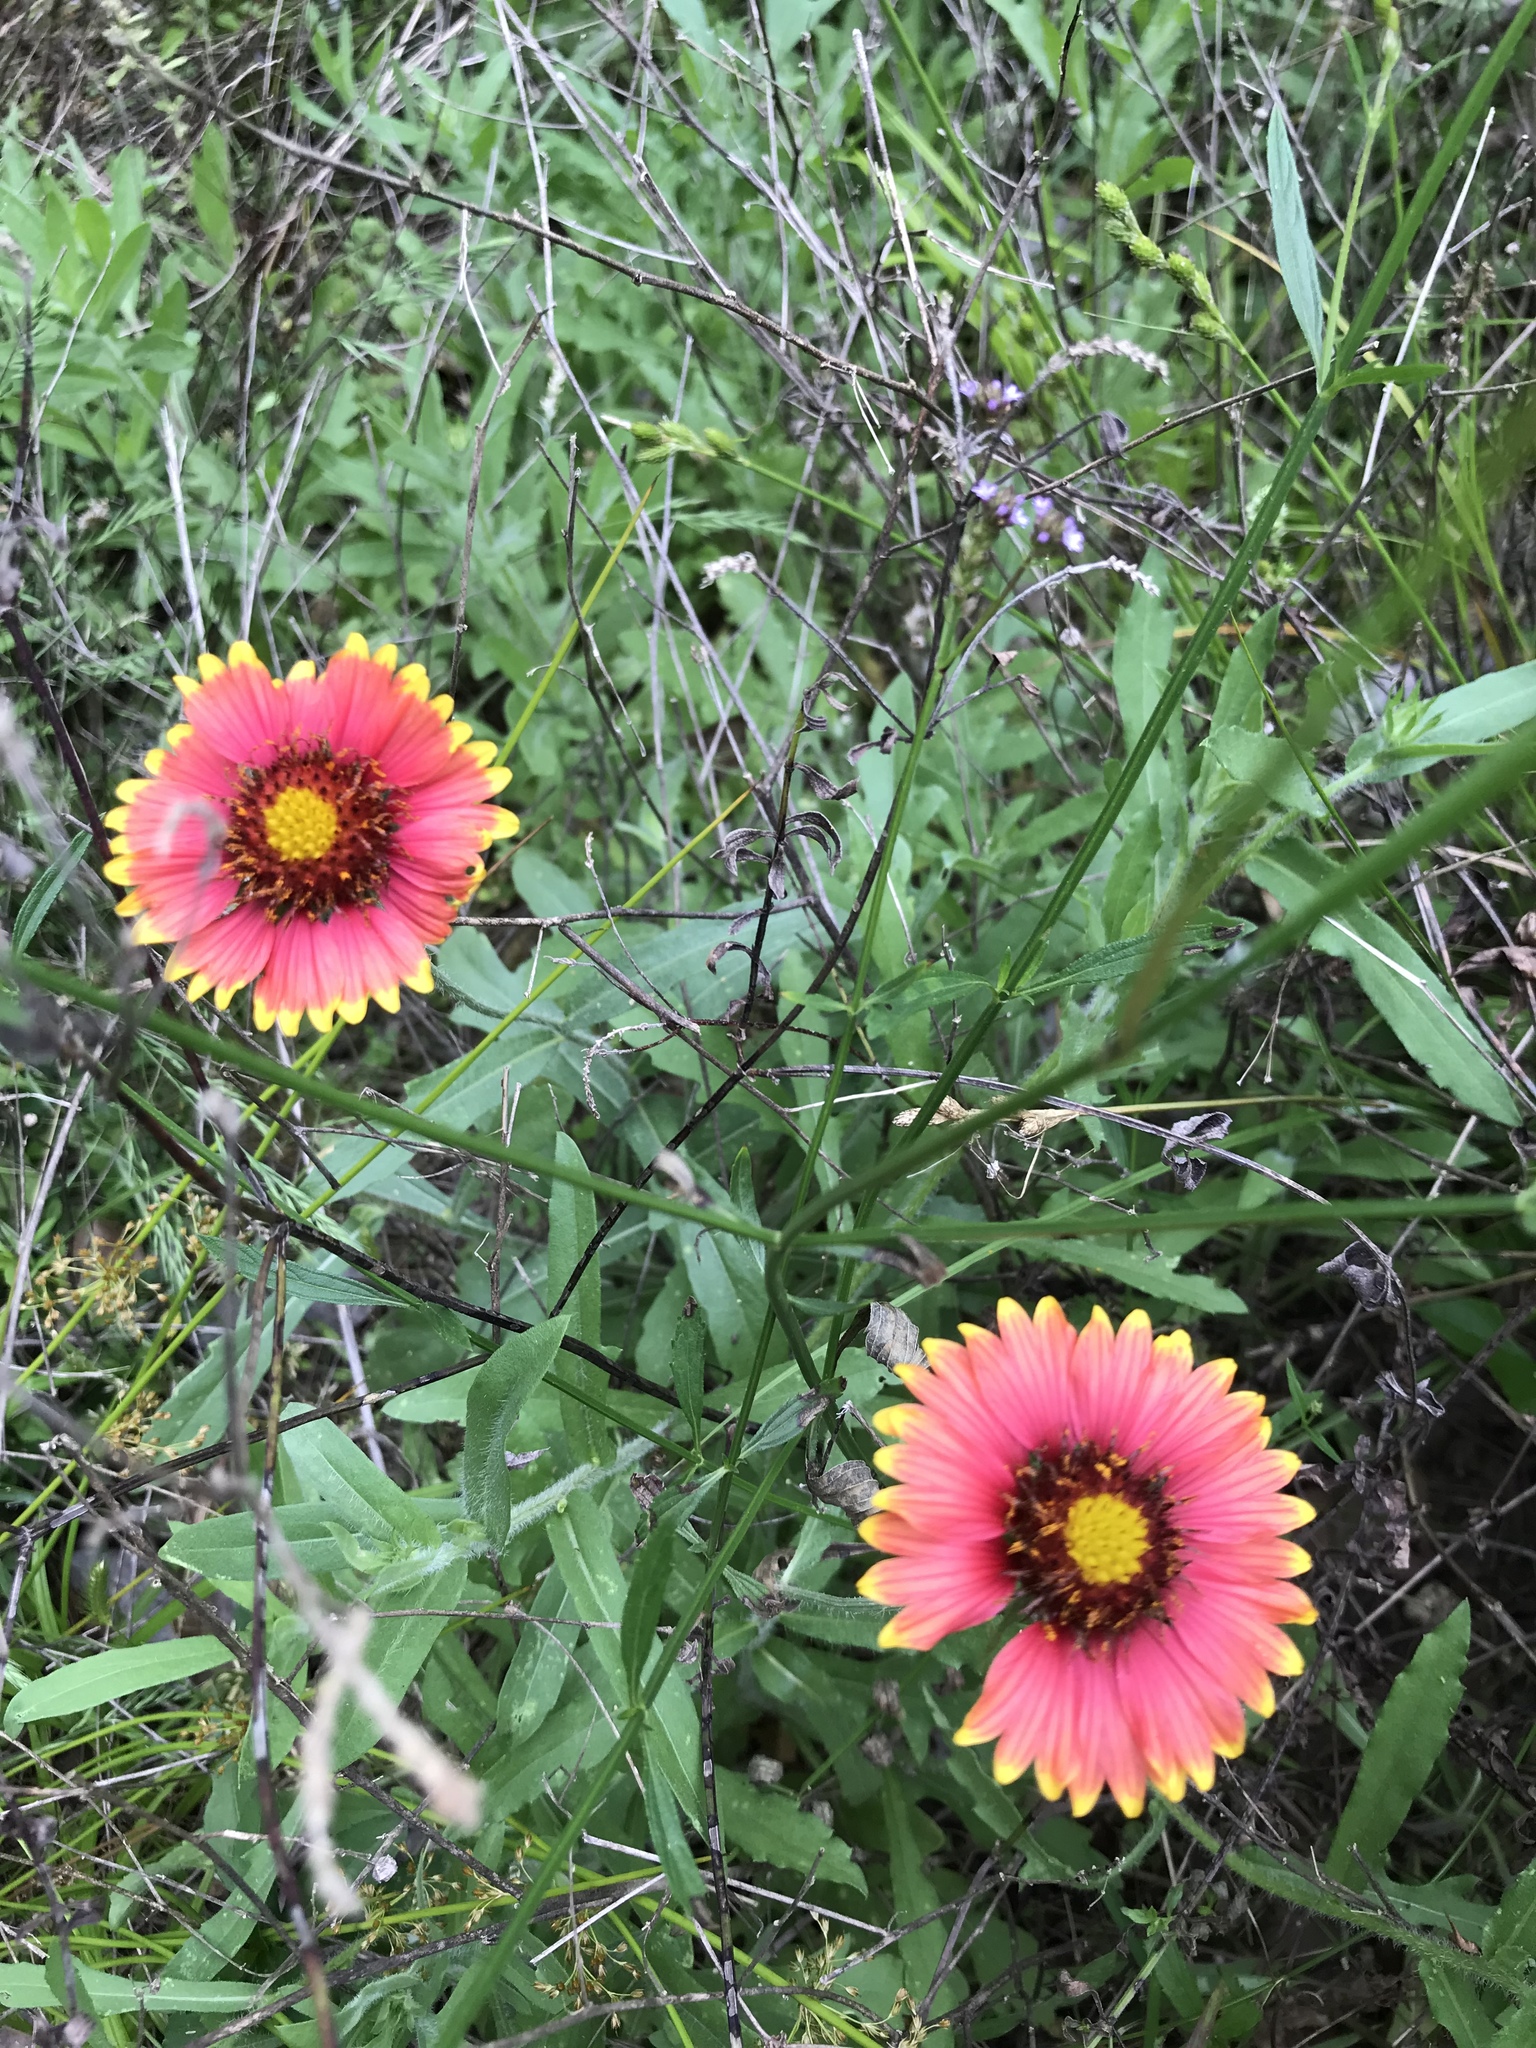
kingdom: Plantae
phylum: Tracheophyta
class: Magnoliopsida
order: Asterales
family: Asteraceae
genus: Gaillardia
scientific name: Gaillardia pulchella
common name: Firewheel
